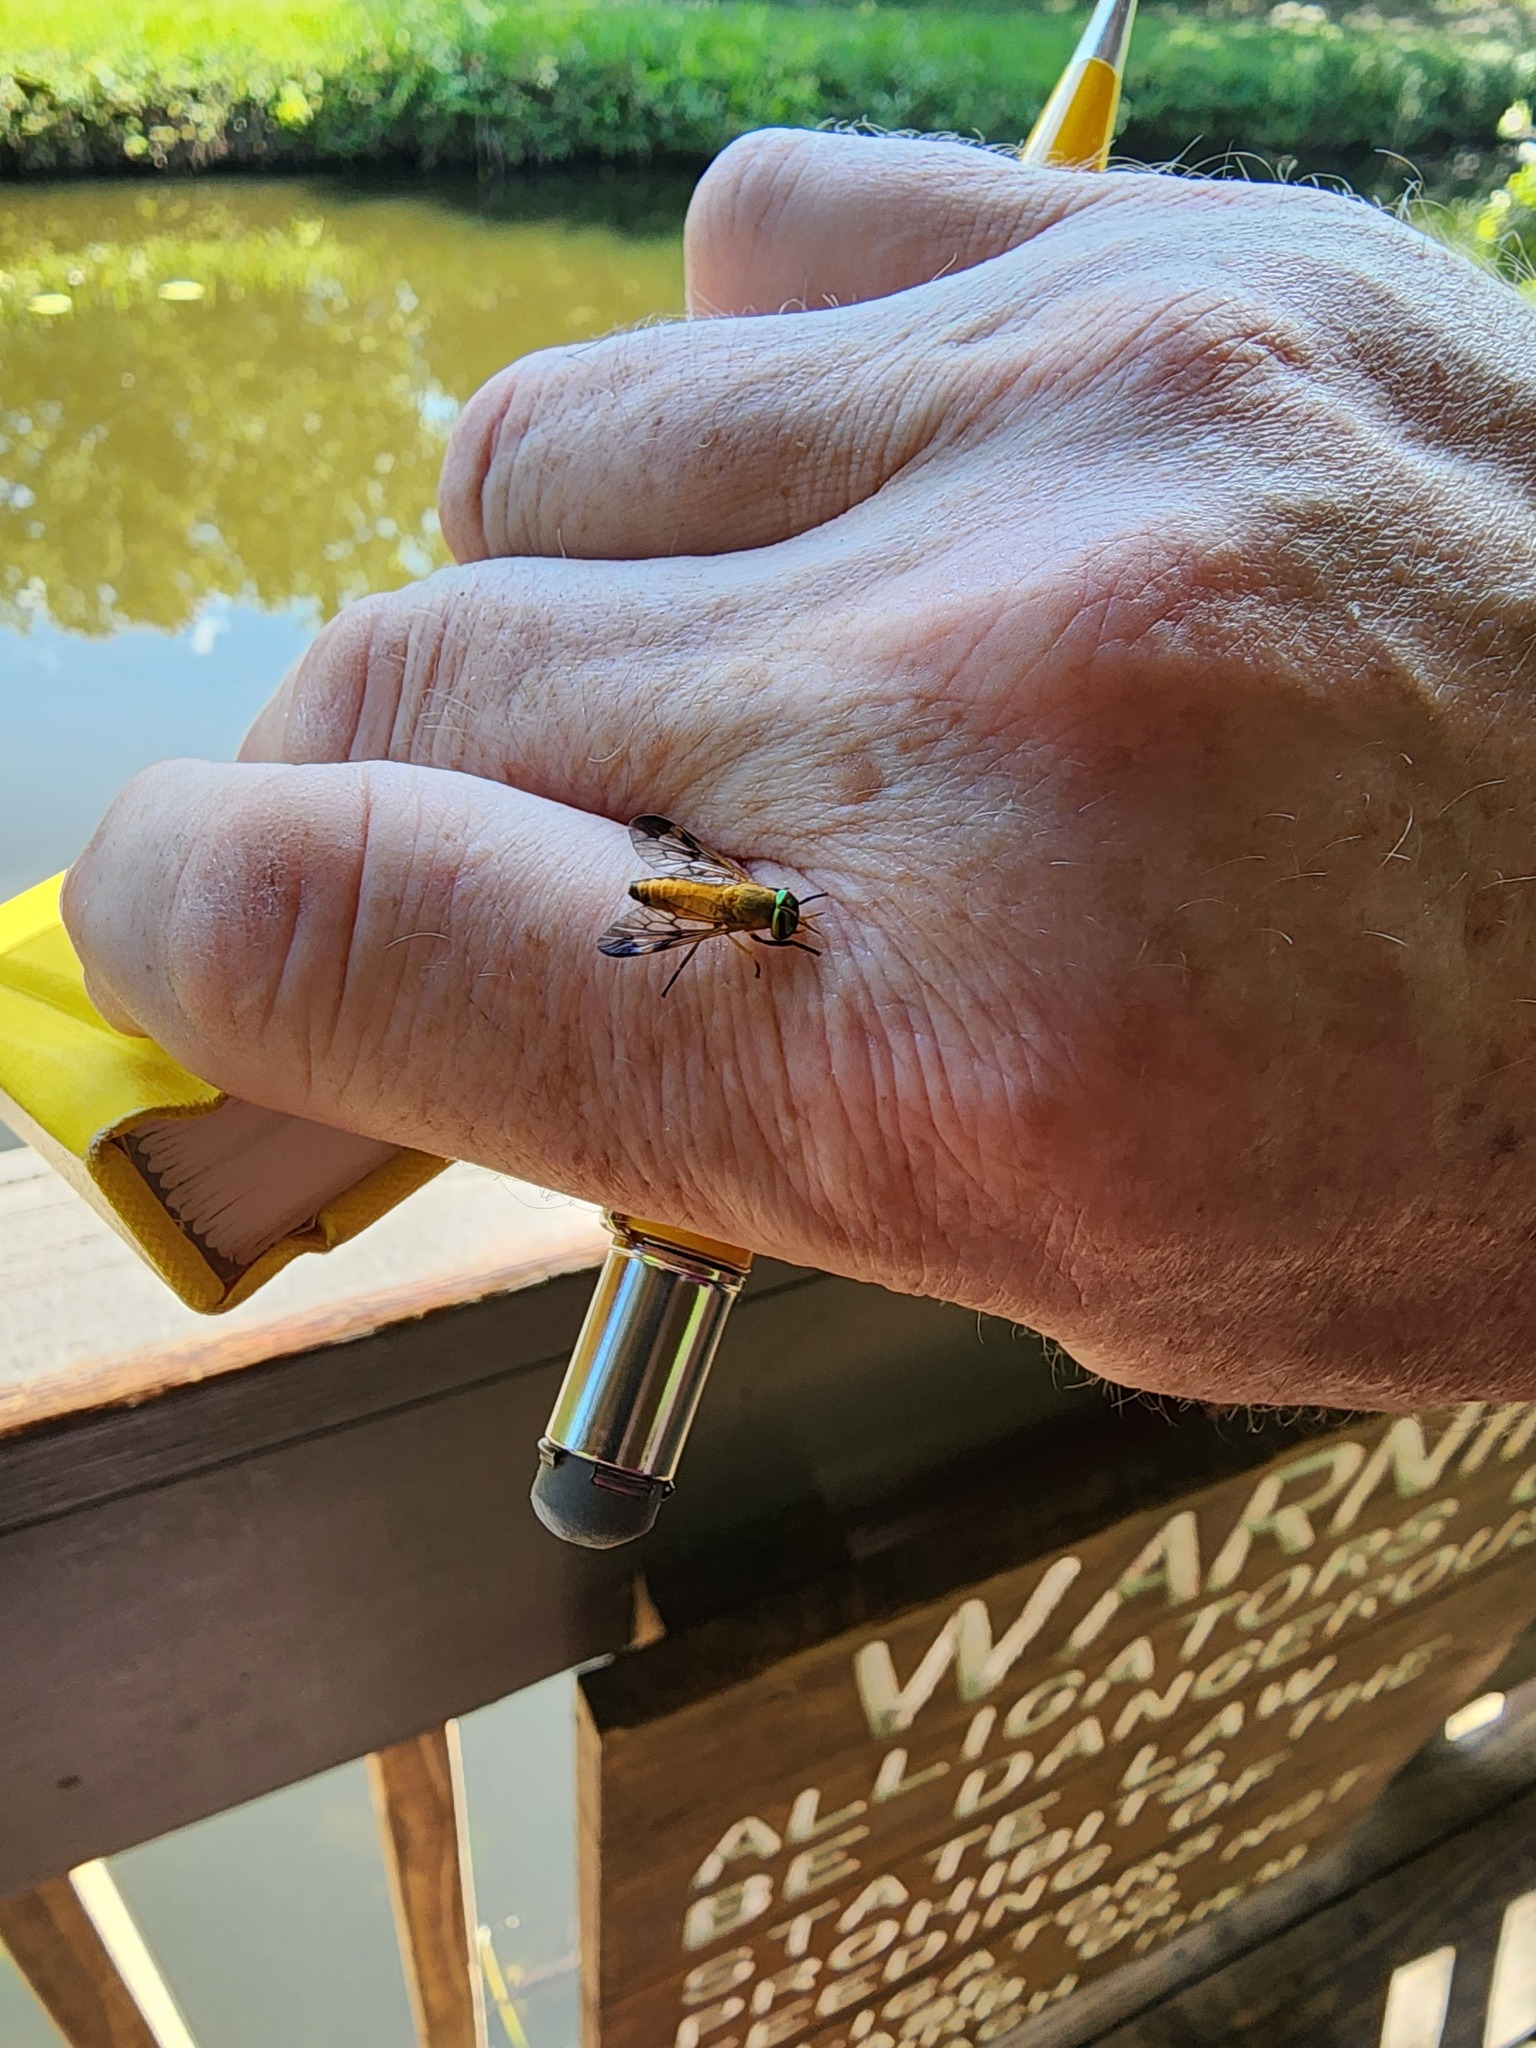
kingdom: Animalia
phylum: Arthropoda
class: Insecta
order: Diptera
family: Tabanidae
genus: Diachlorus
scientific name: Diachlorus ferrugatus
